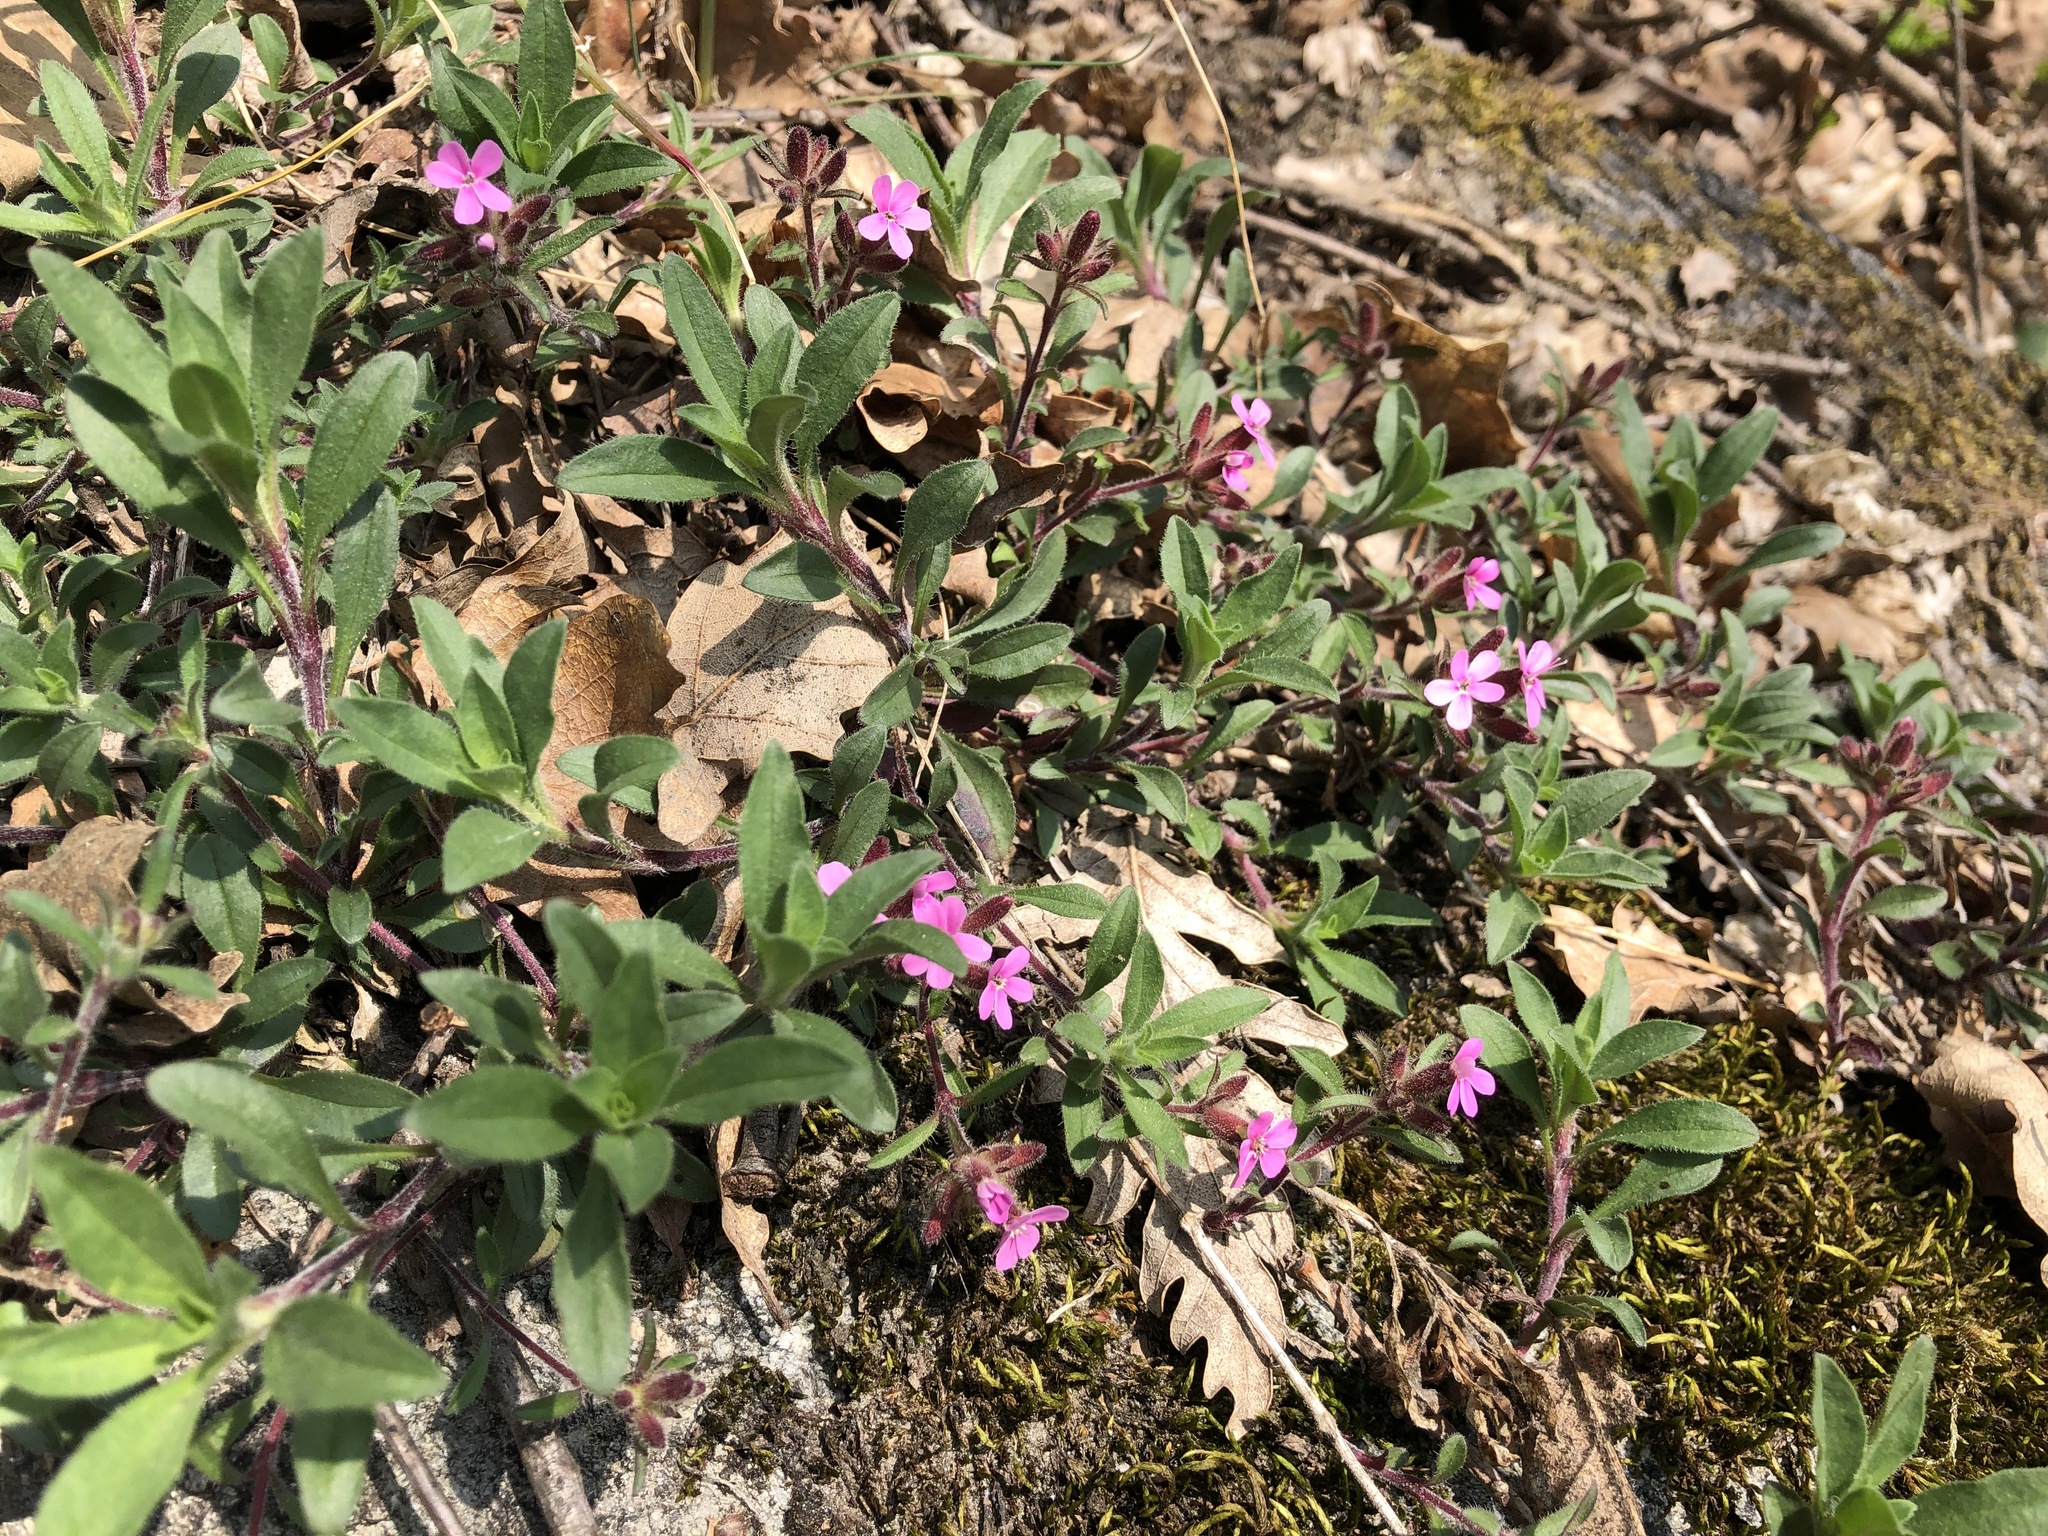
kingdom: Plantae
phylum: Tracheophyta
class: Magnoliopsida
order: Caryophyllales
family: Caryophyllaceae
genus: Saponaria
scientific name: Saponaria ocymoides
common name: Rock soapwort
